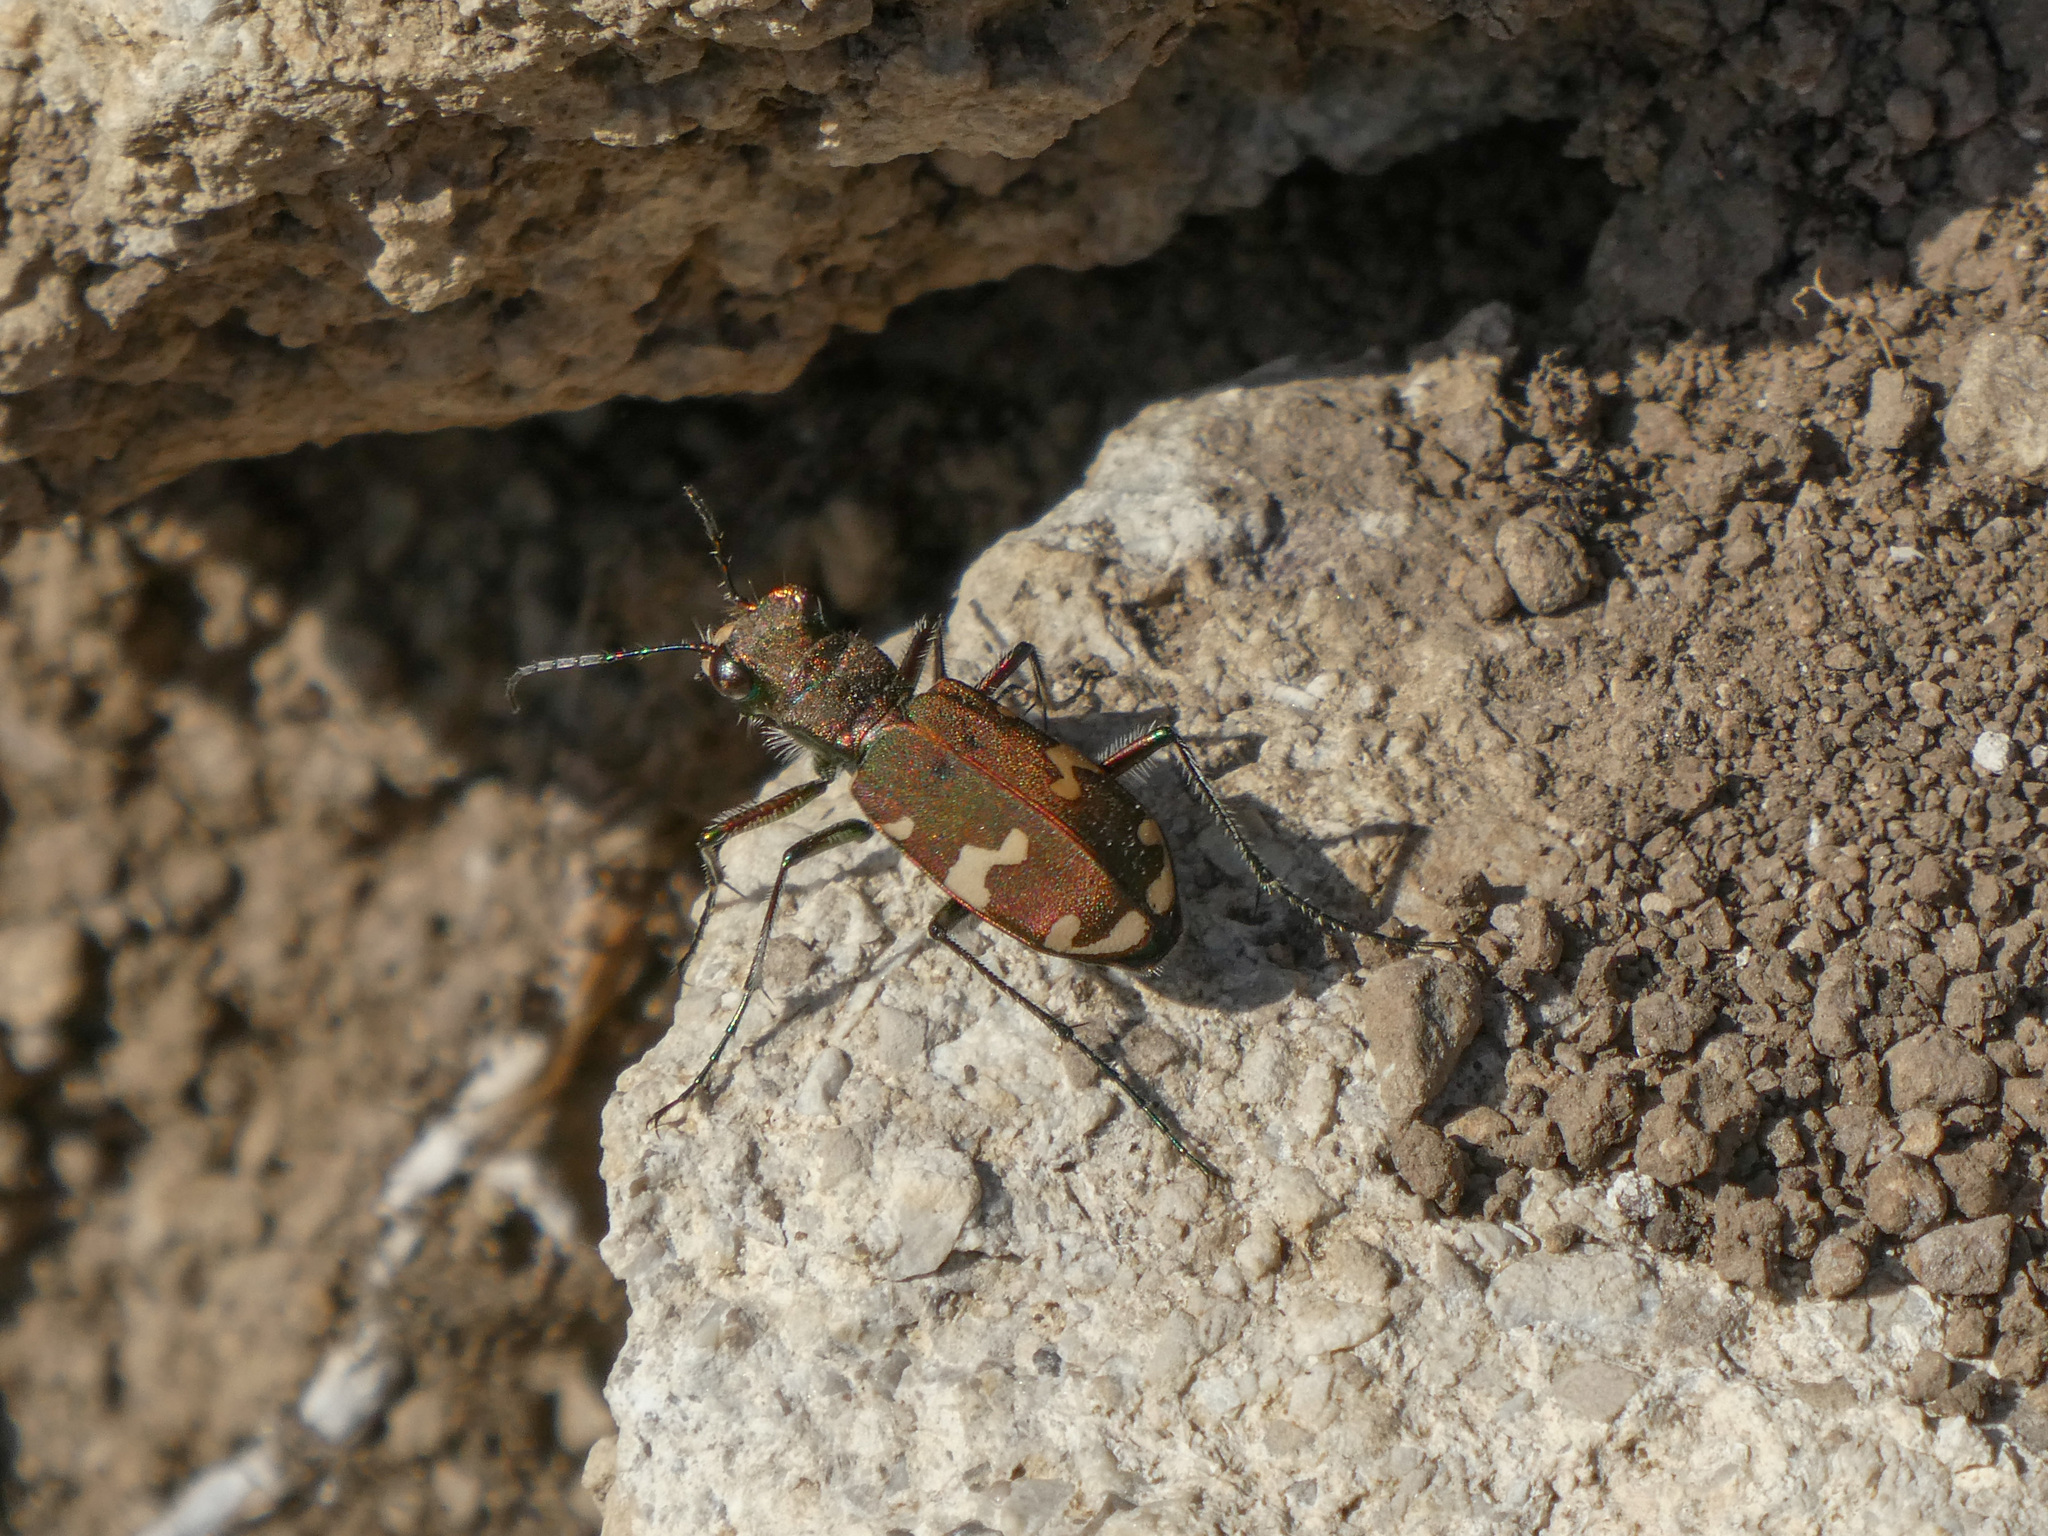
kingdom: Animalia
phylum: Arthropoda
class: Insecta
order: Coleoptera
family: Carabidae
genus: Cicindela
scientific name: Cicindela sylvicola
